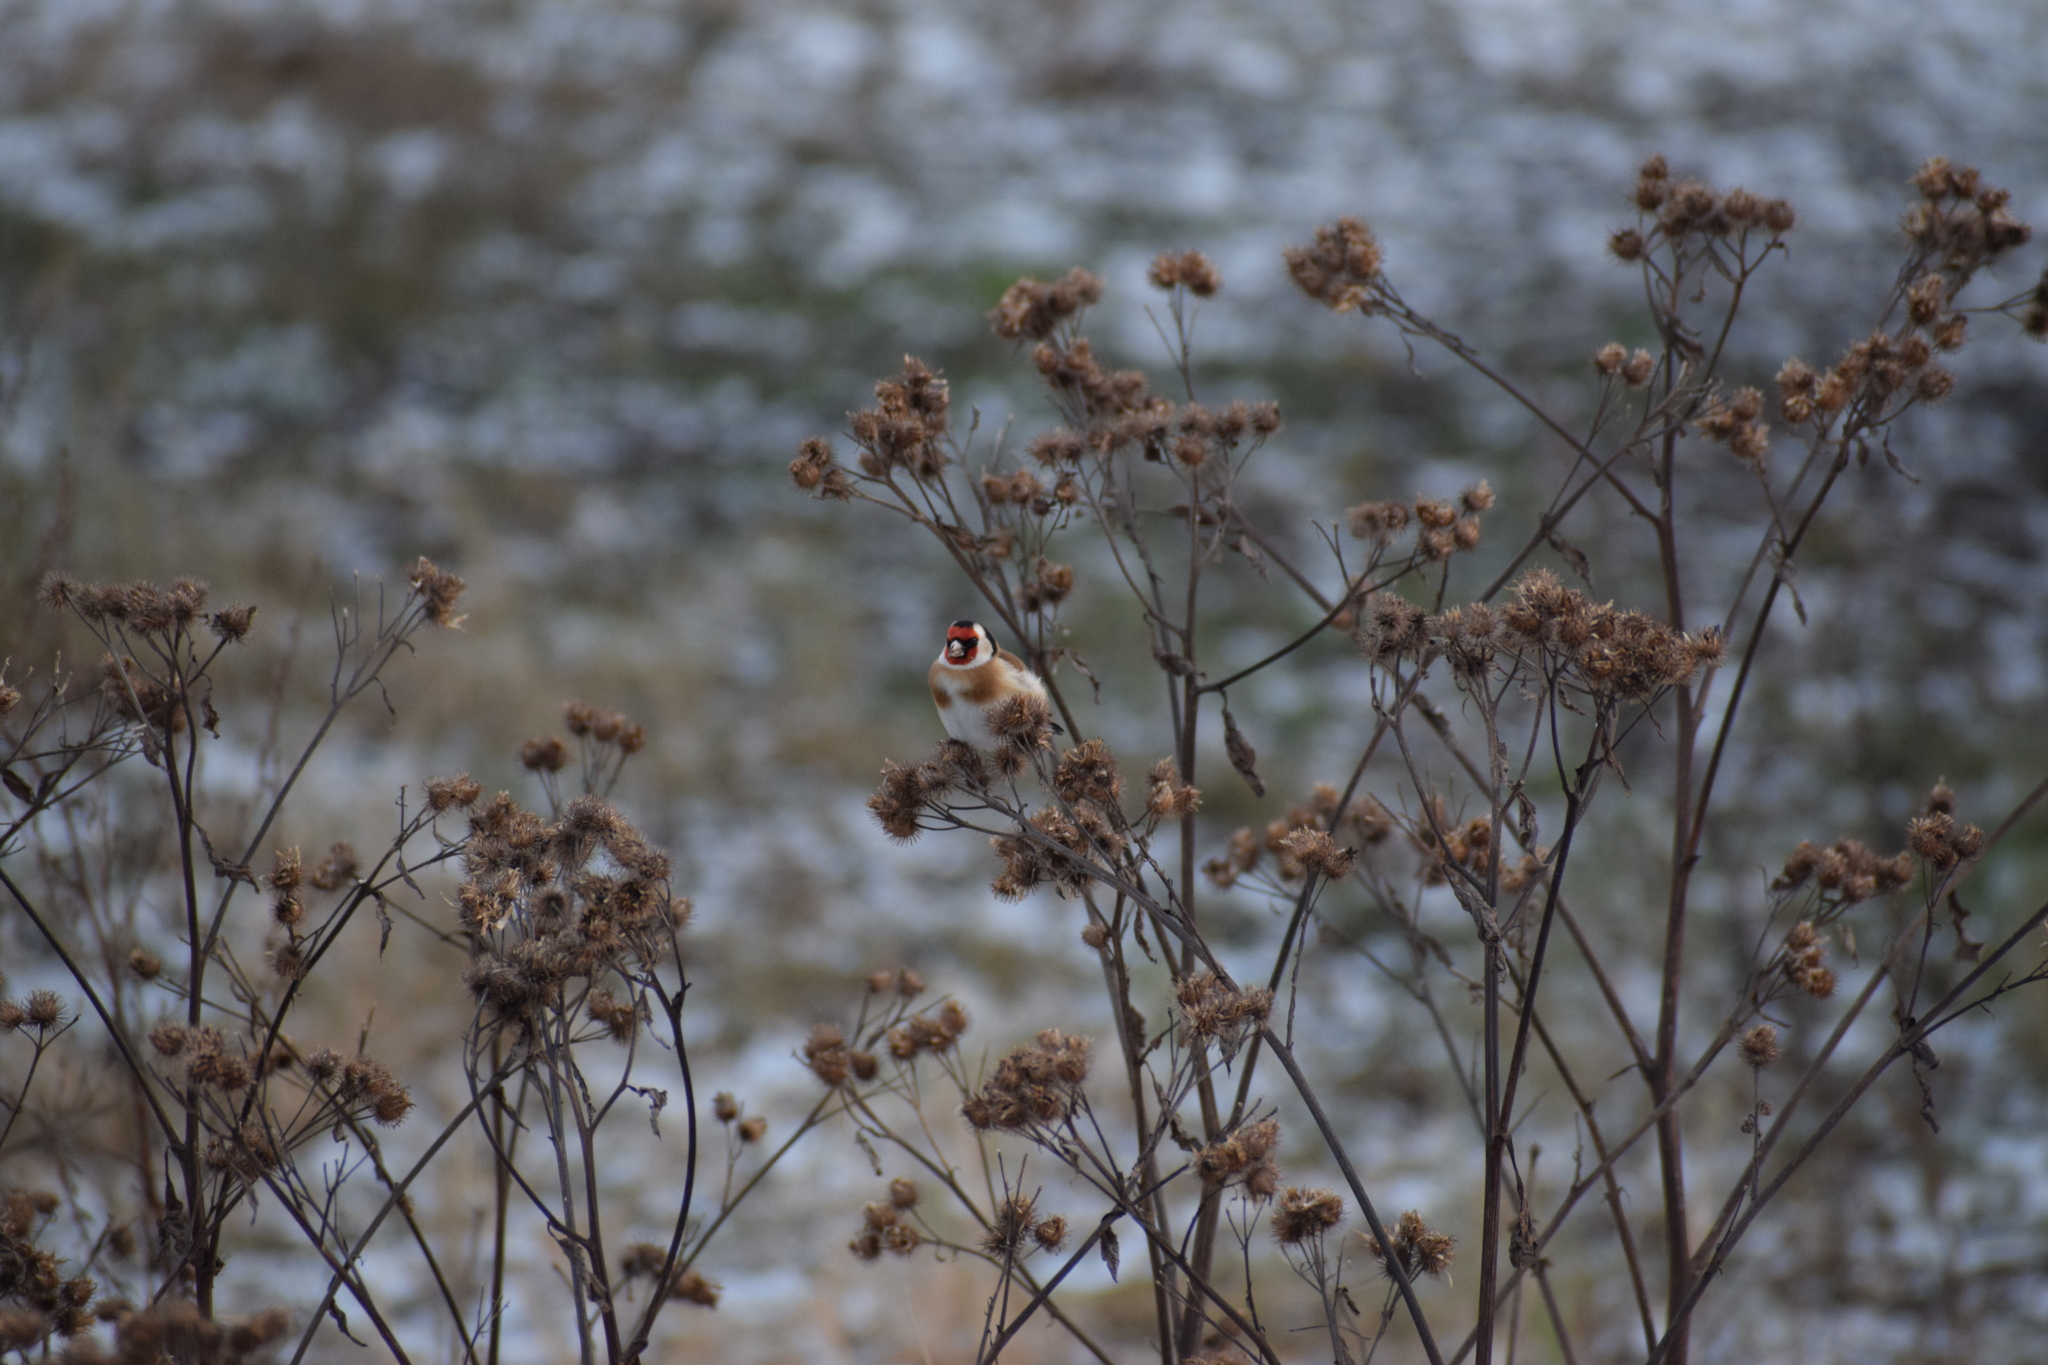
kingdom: Animalia
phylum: Chordata
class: Aves
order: Passeriformes
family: Fringillidae
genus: Carduelis
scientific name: Carduelis carduelis
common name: European goldfinch
